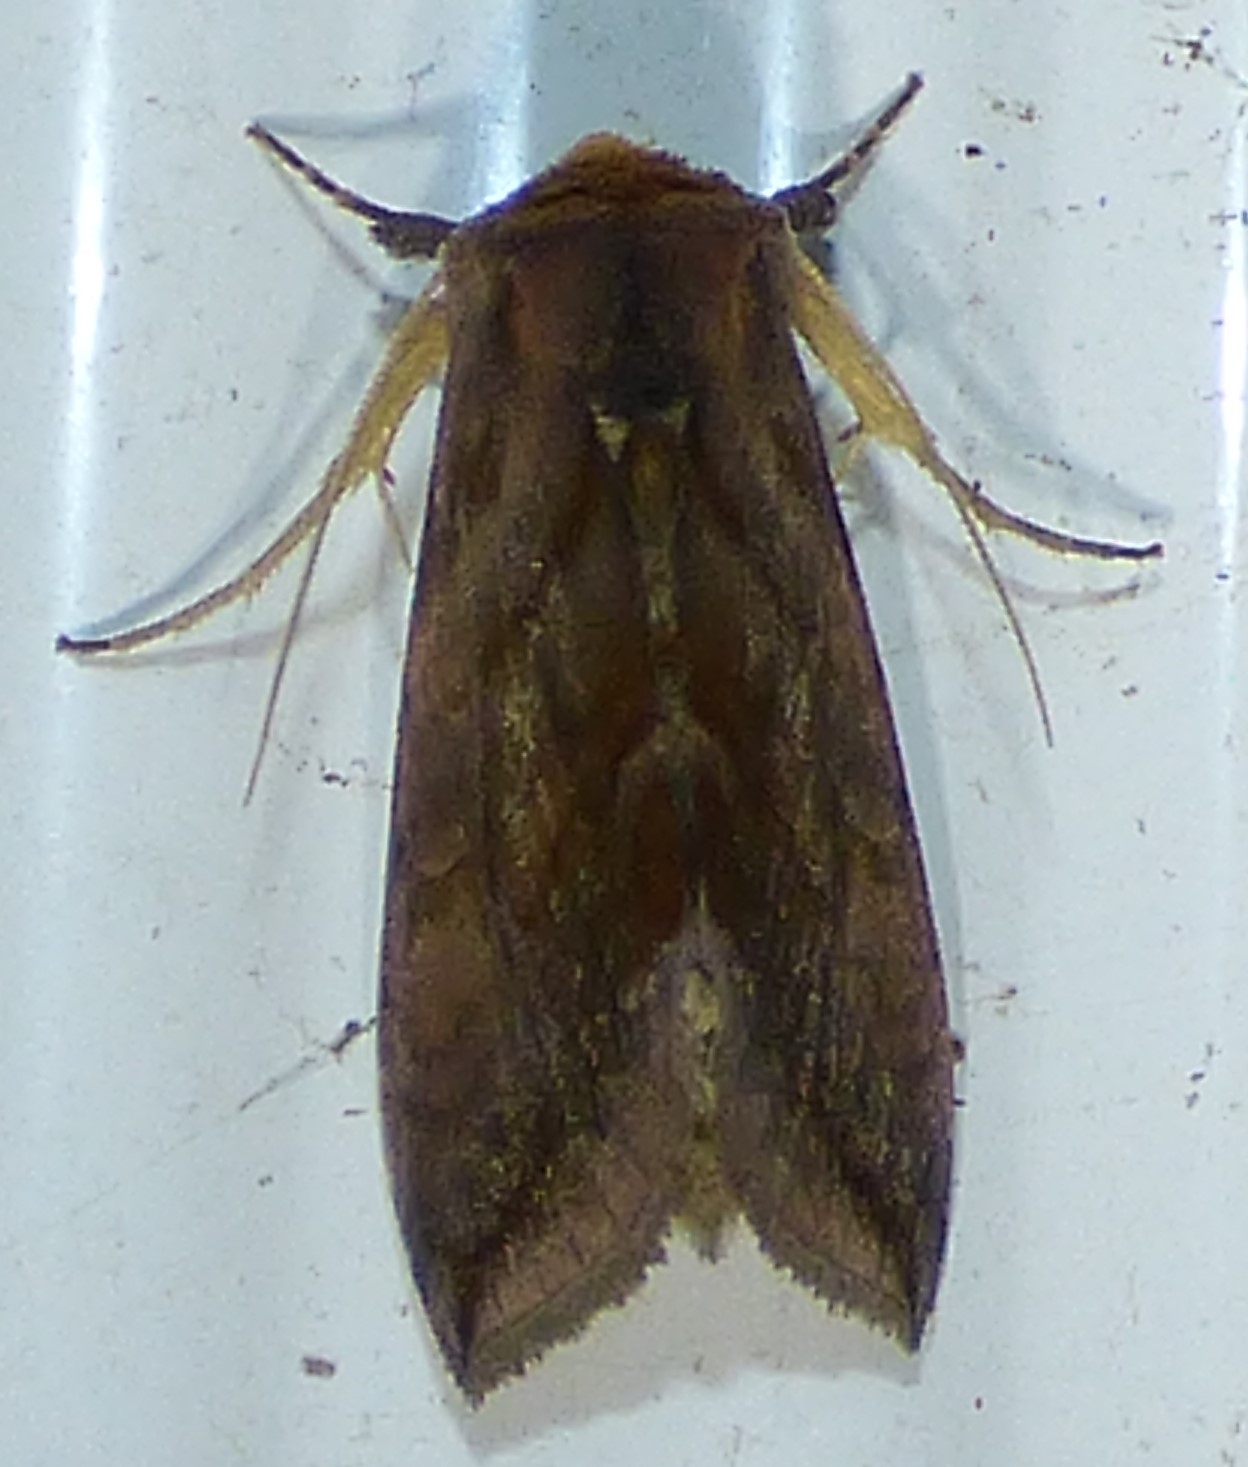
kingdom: Animalia
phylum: Arthropoda
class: Insecta
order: Lepidoptera
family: Noctuidae
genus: Allagrapha
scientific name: Allagrapha aerea
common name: Unspotted looper moth
